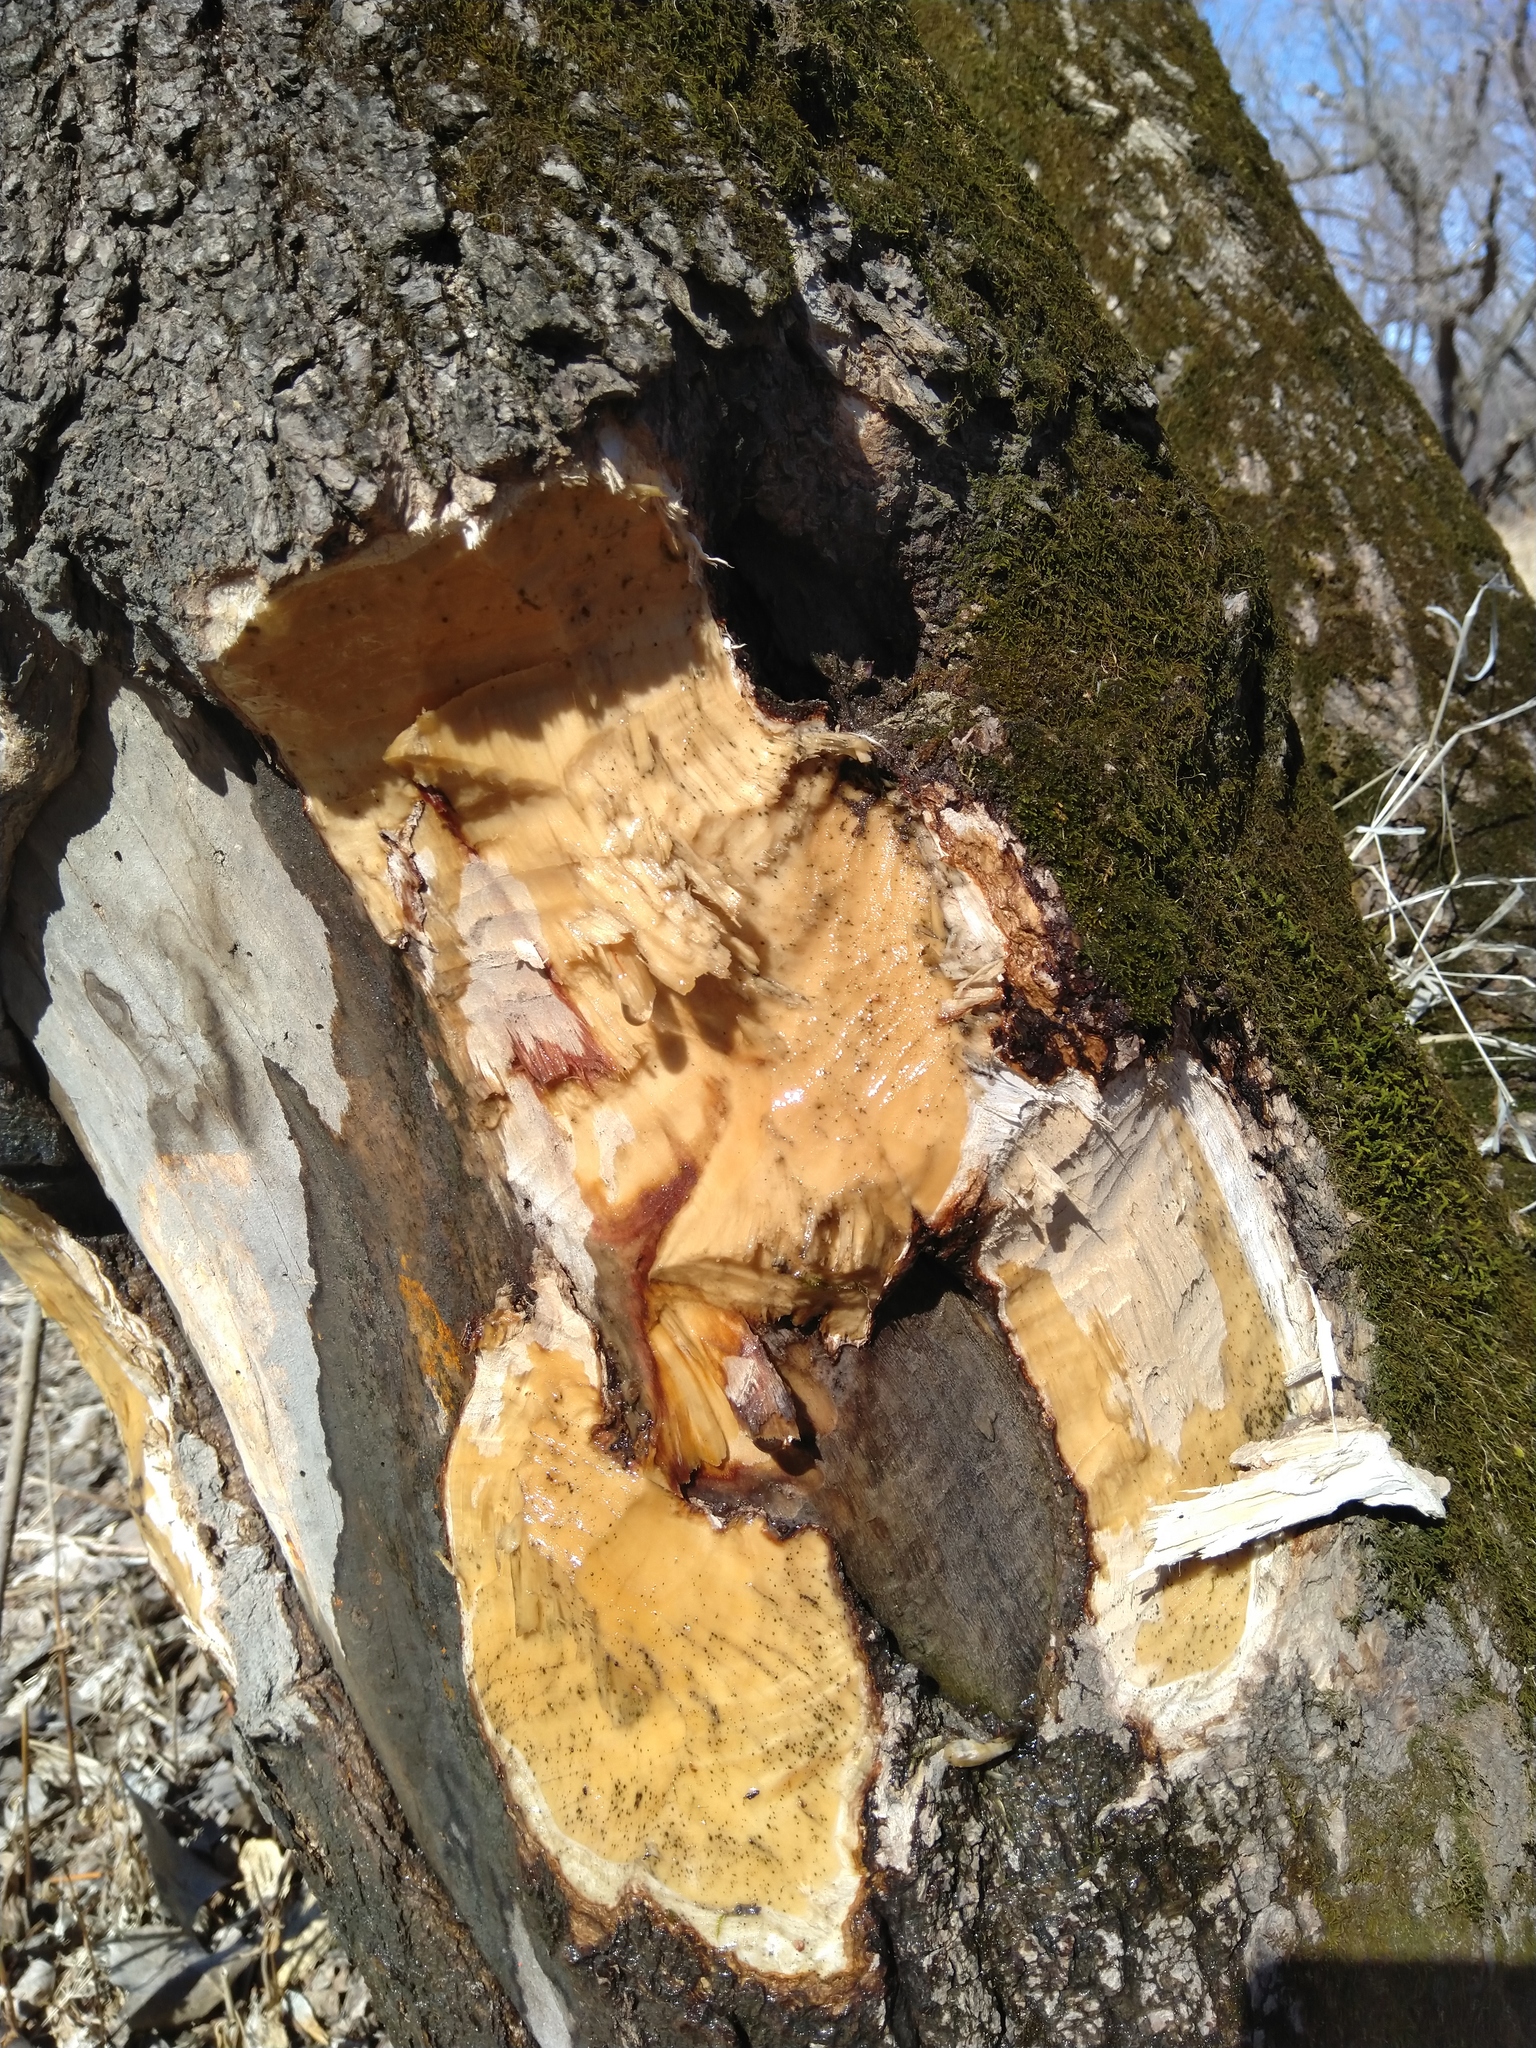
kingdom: Animalia
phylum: Chordata
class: Mammalia
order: Rodentia
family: Castoridae
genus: Castor
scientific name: Castor canadensis
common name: American beaver
